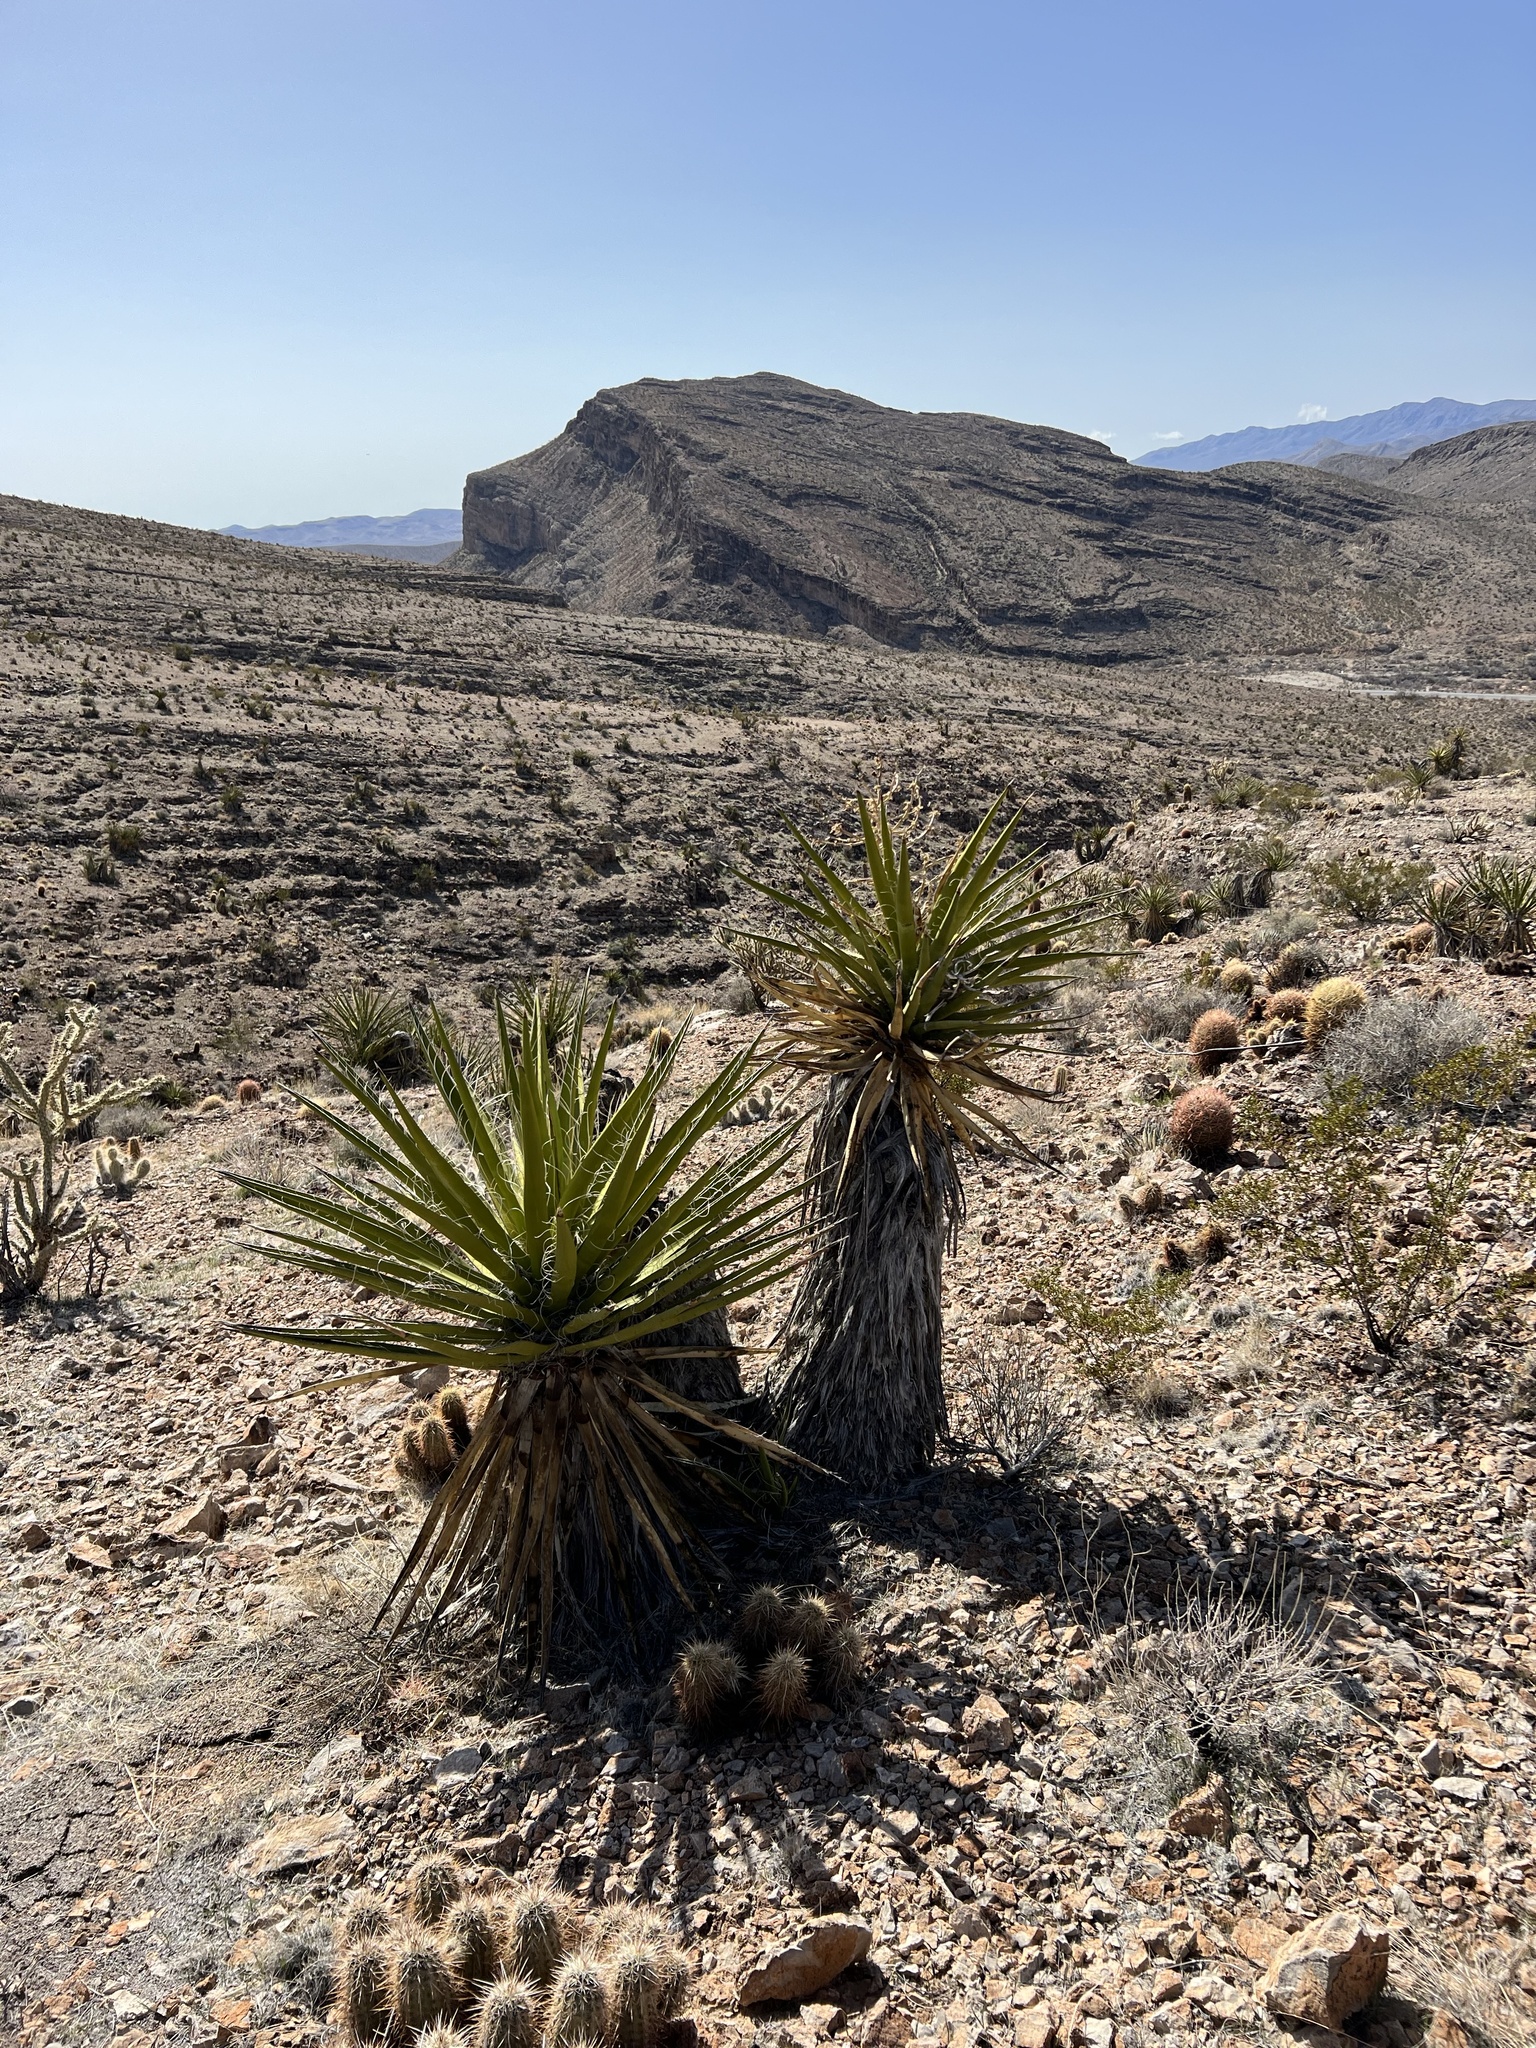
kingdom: Plantae
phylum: Tracheophyta
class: Liliopsida
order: Asparagales
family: Asparagaceae
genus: Yucca
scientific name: Yucca schidigera
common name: Mojave yucca
